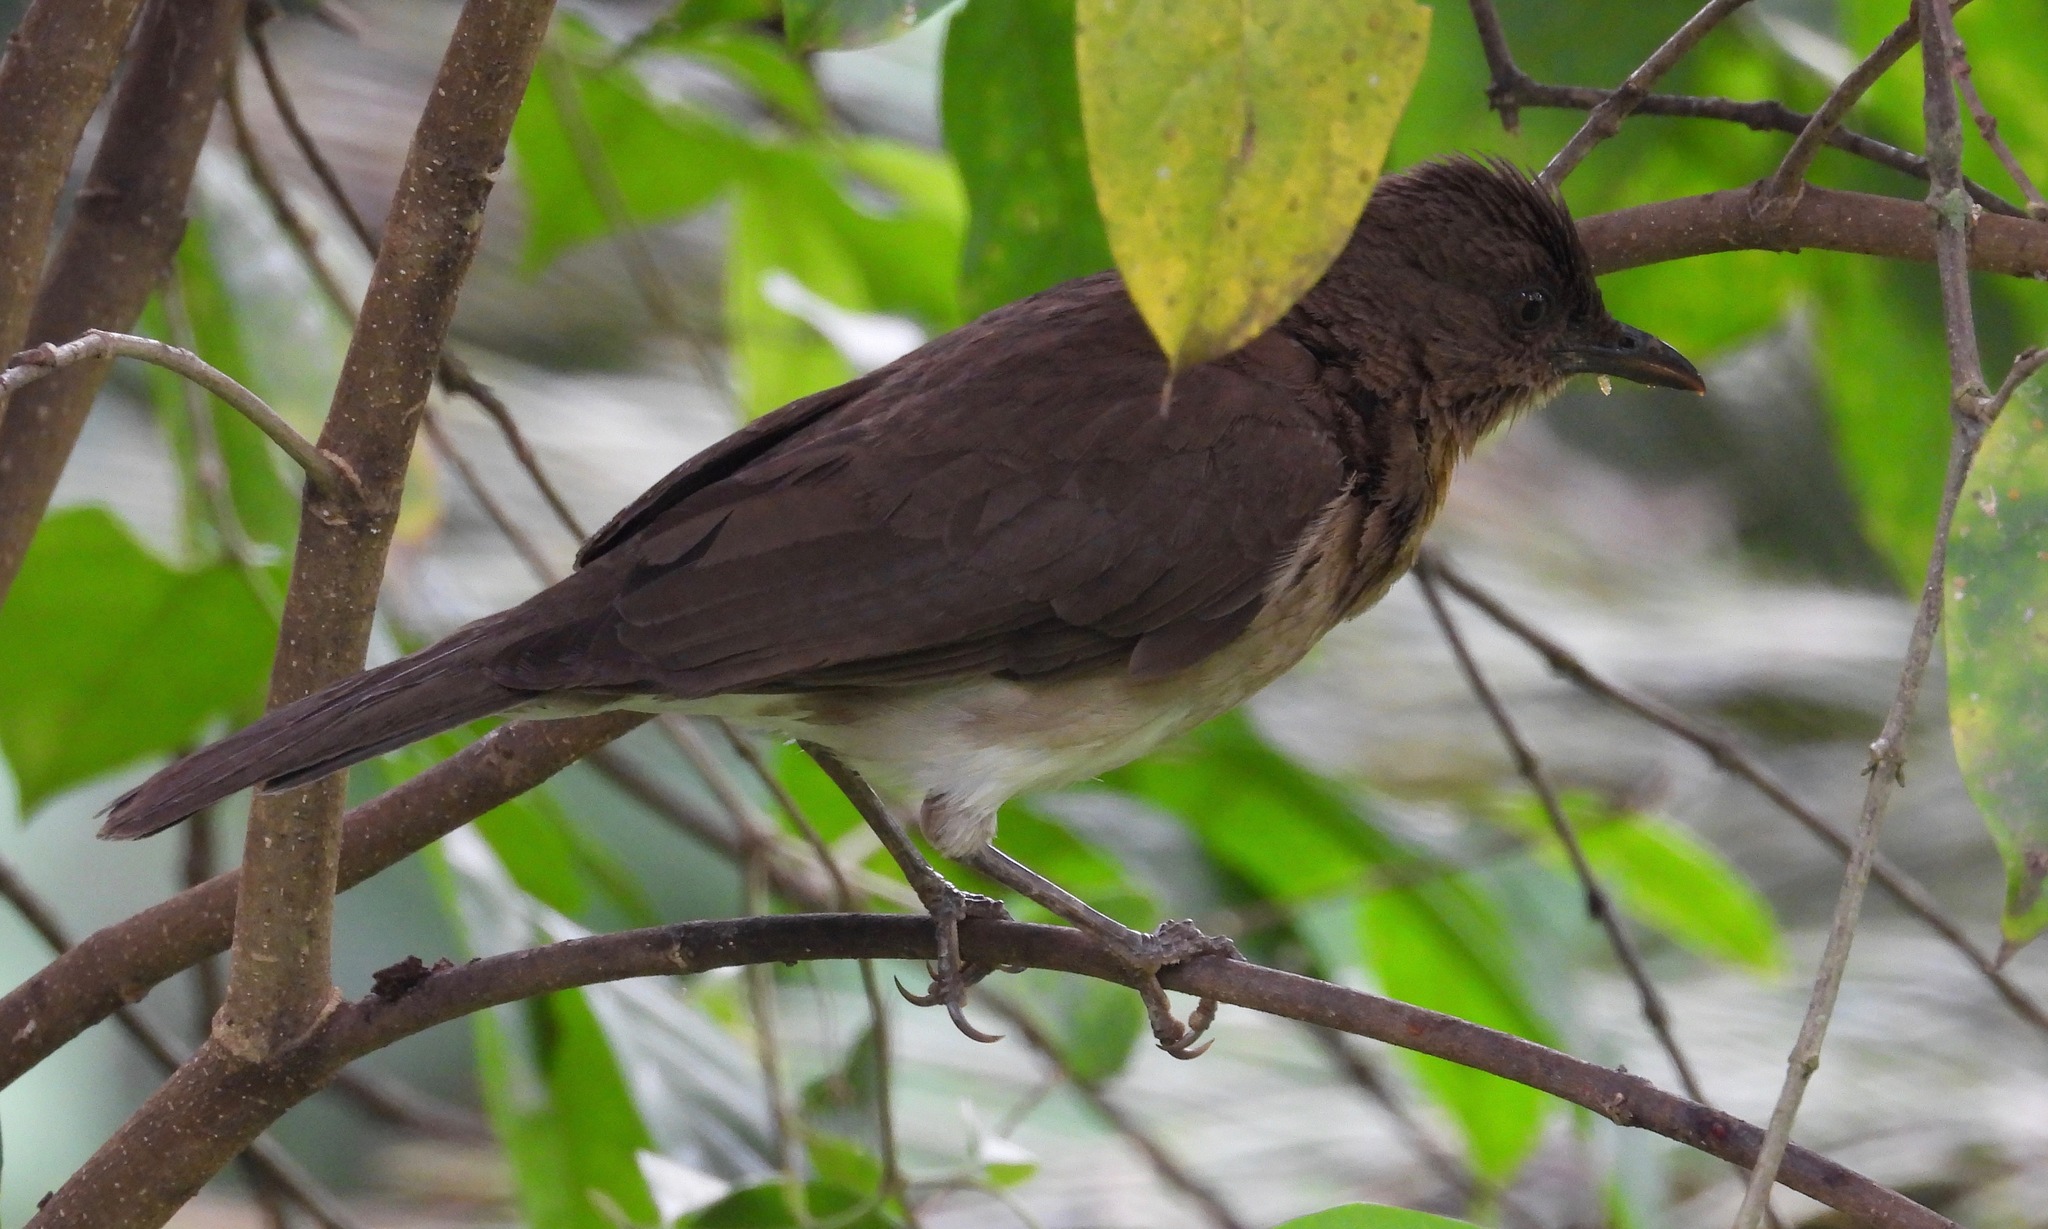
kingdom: Animalia
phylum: Chordata
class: Aves
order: Passeriformes
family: Turdidae
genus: Turdus
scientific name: Turdus ignobilis
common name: Black-billed thrush
